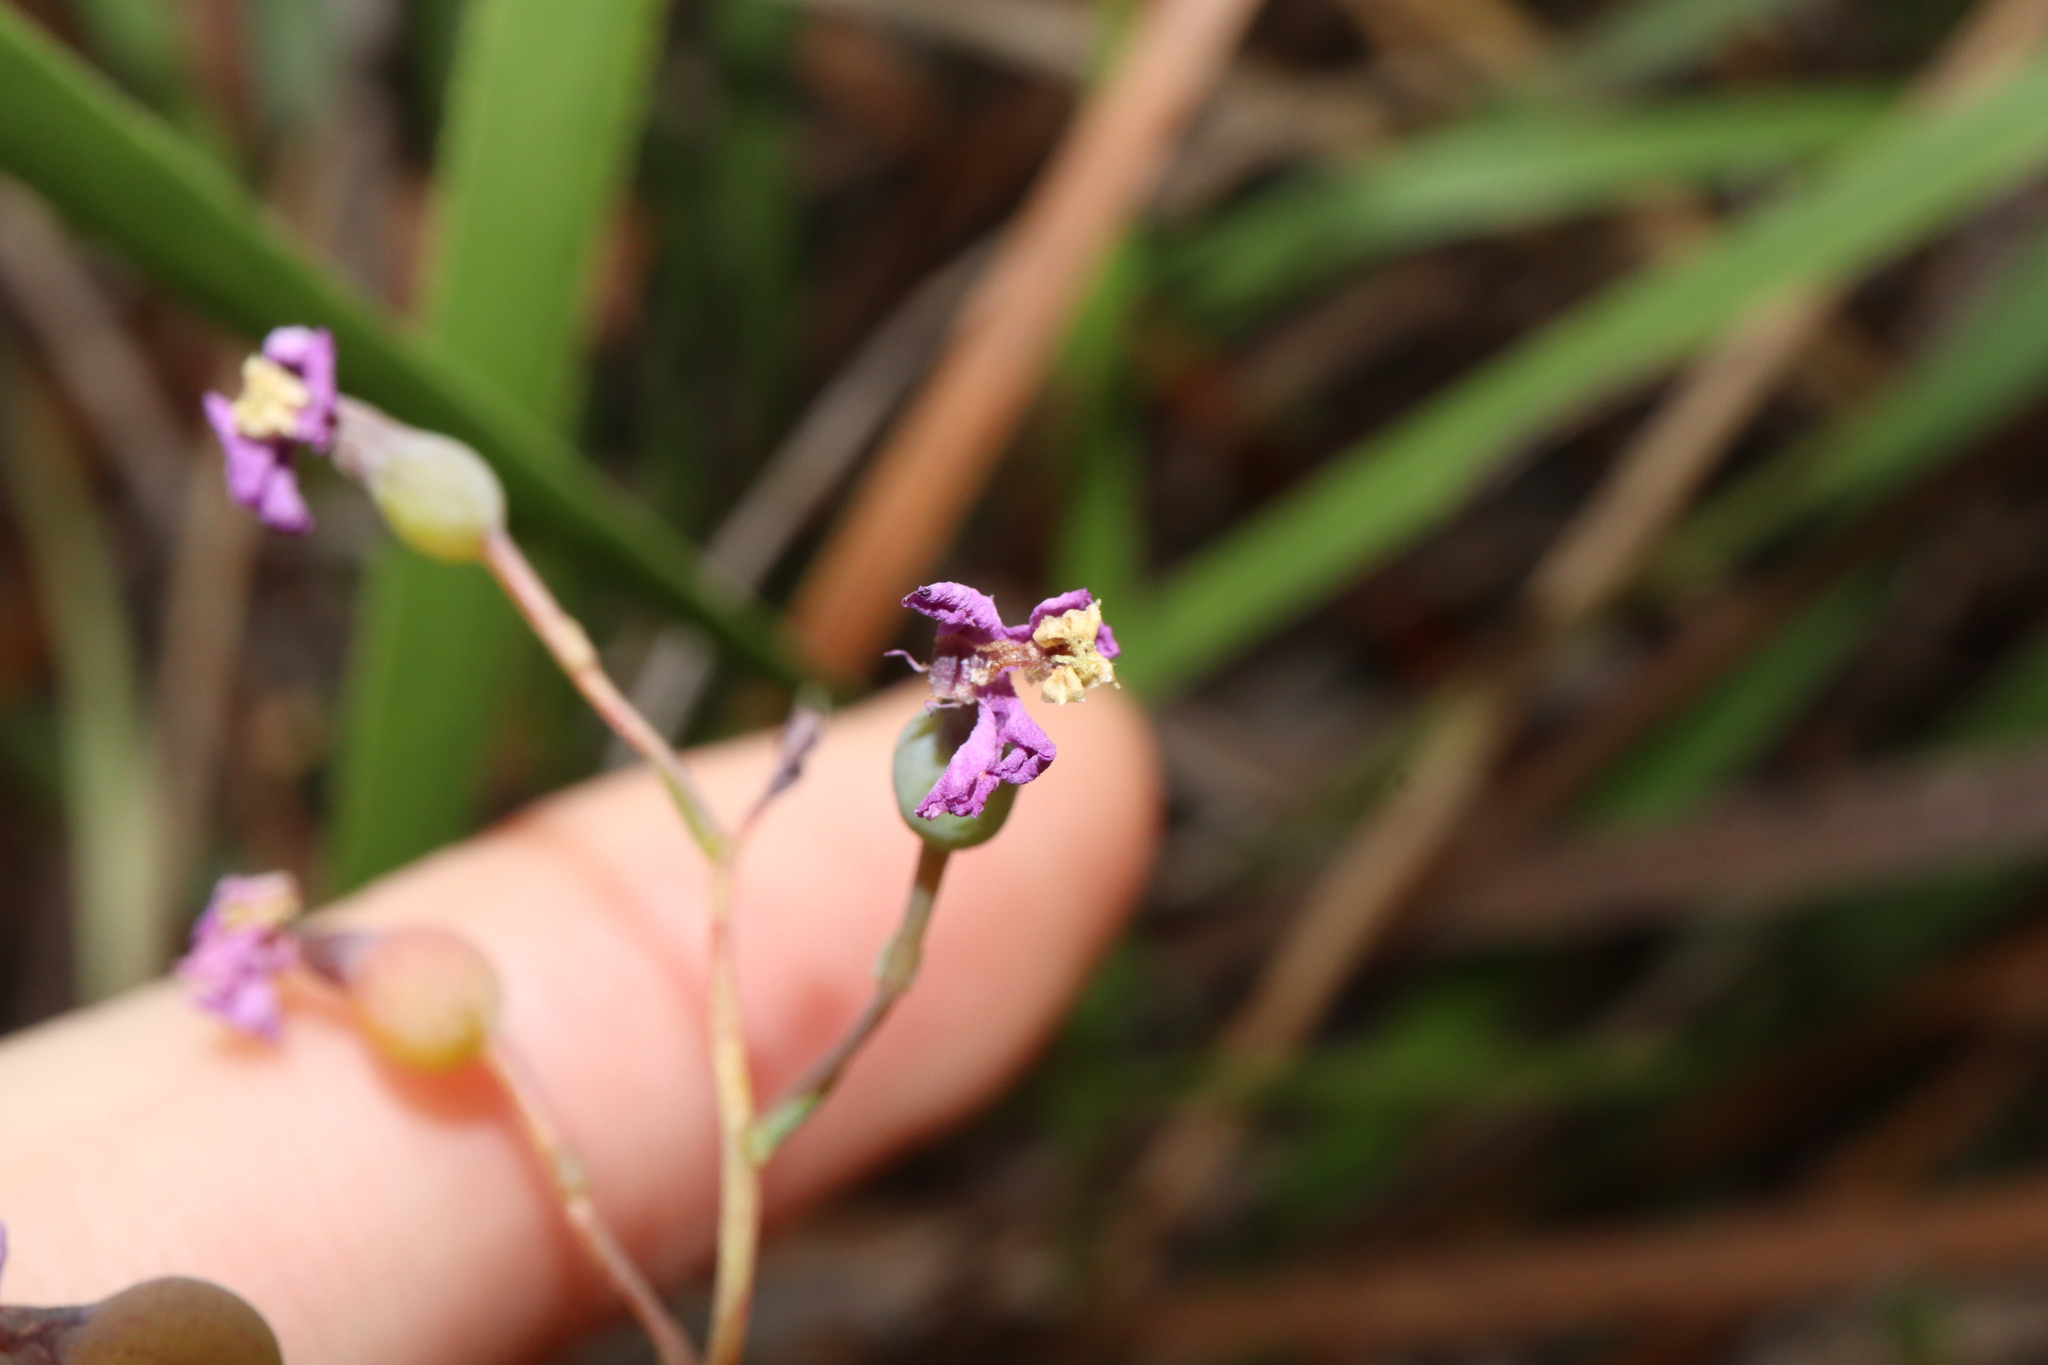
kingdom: Plantae
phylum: Tracheophyta
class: Magnoliopsida
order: Asterales
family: Stylidiaceae
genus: Stylidium
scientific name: Stylidium scandens
